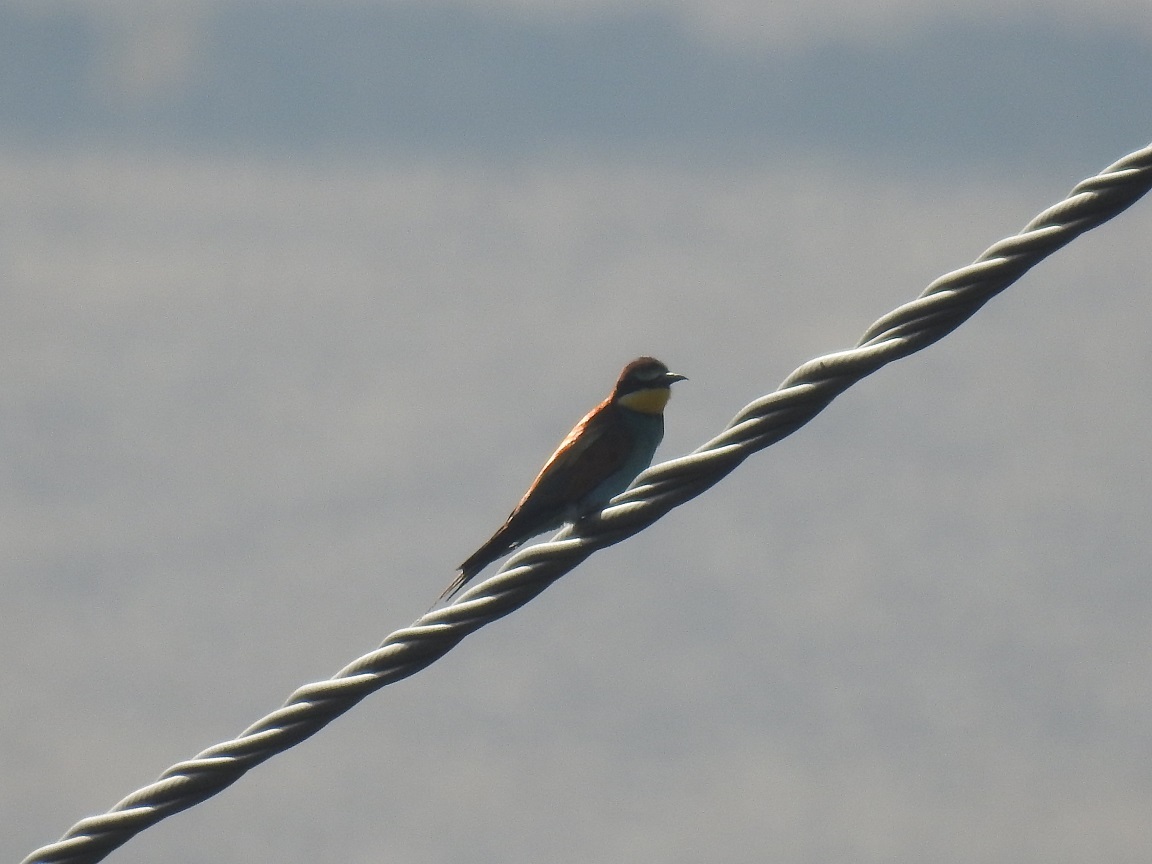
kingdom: Animalia
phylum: Chordata
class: Aves
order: Coraciiformes
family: Meropidae
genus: Merops
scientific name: Merops apiaster
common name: European bee-eater
